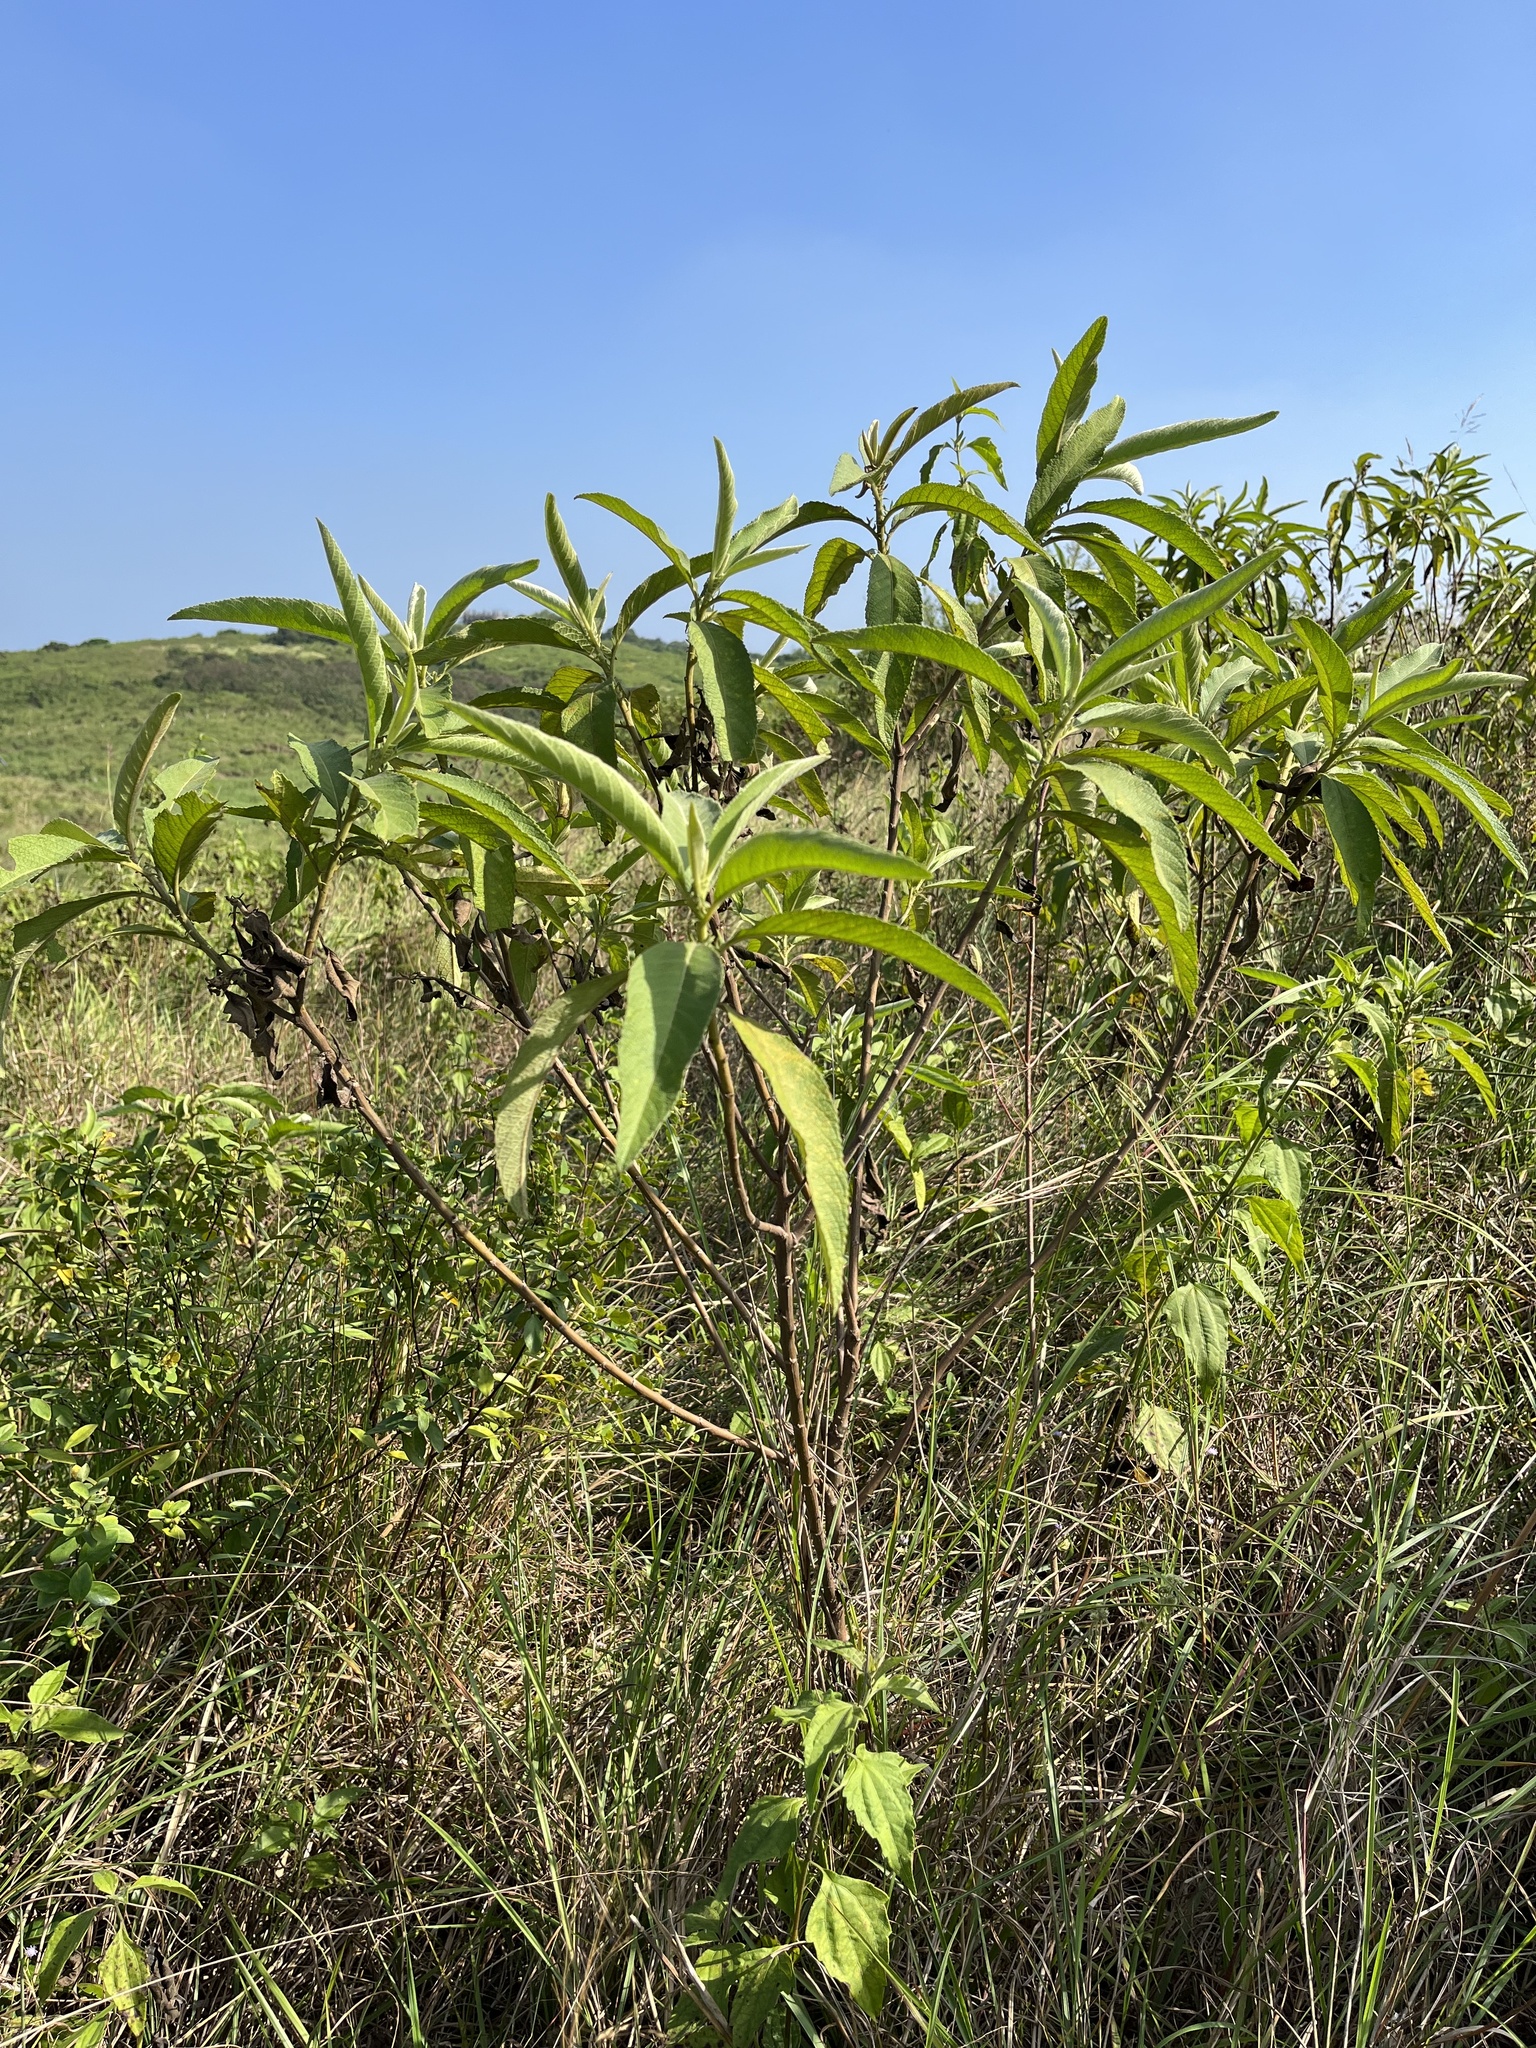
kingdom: Plantae
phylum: Tracheophyta
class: Magnoliopsida
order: Asterales
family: Asteraceae
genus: Blumea
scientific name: Blumea balsamifera
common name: Ngai camphor
